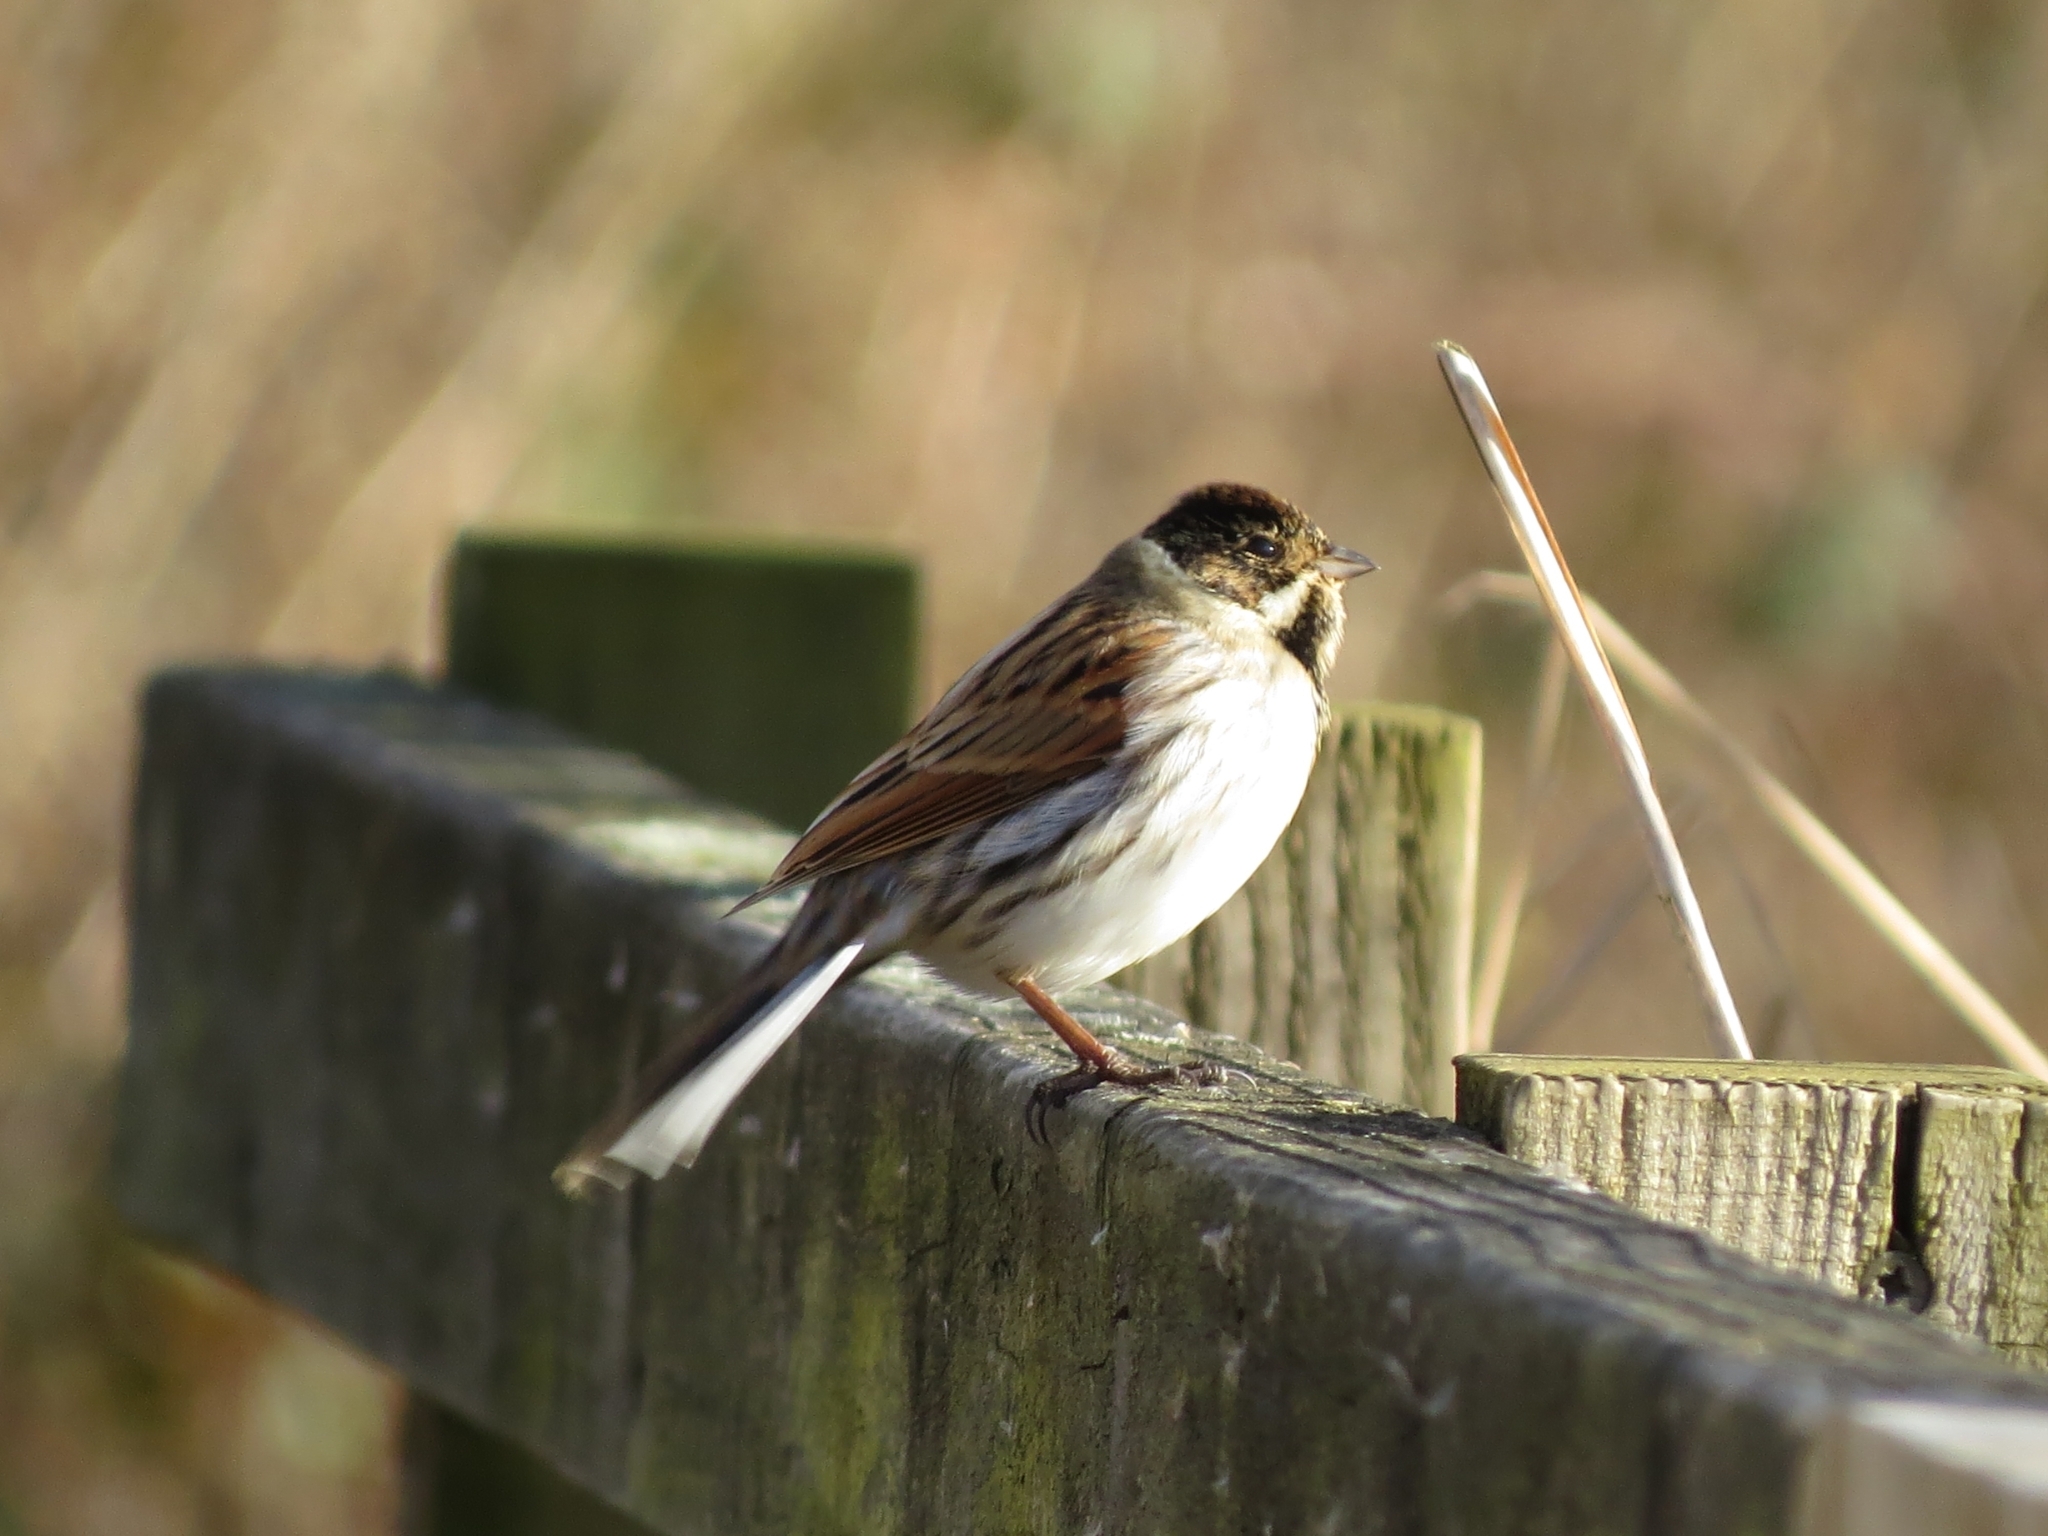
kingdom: Animalia
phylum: Chordata
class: Aves
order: Passeriformes
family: Emberizidae
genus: Emberiza
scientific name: Emberiza schoeniclus
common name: Reed bunting
